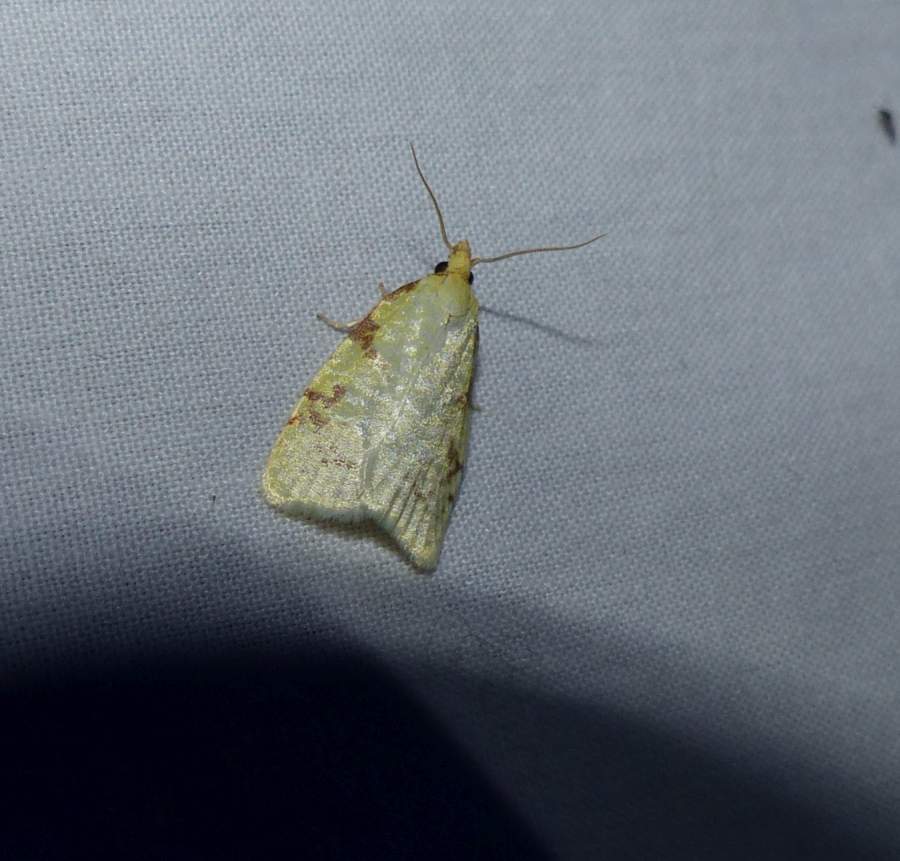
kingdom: Animalia
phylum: Arthropoda
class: Insecta
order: Lepidoptera
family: Tortricidae
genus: Cenopis
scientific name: Cenopis pettitana
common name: Maple-basswood leafroller moth
